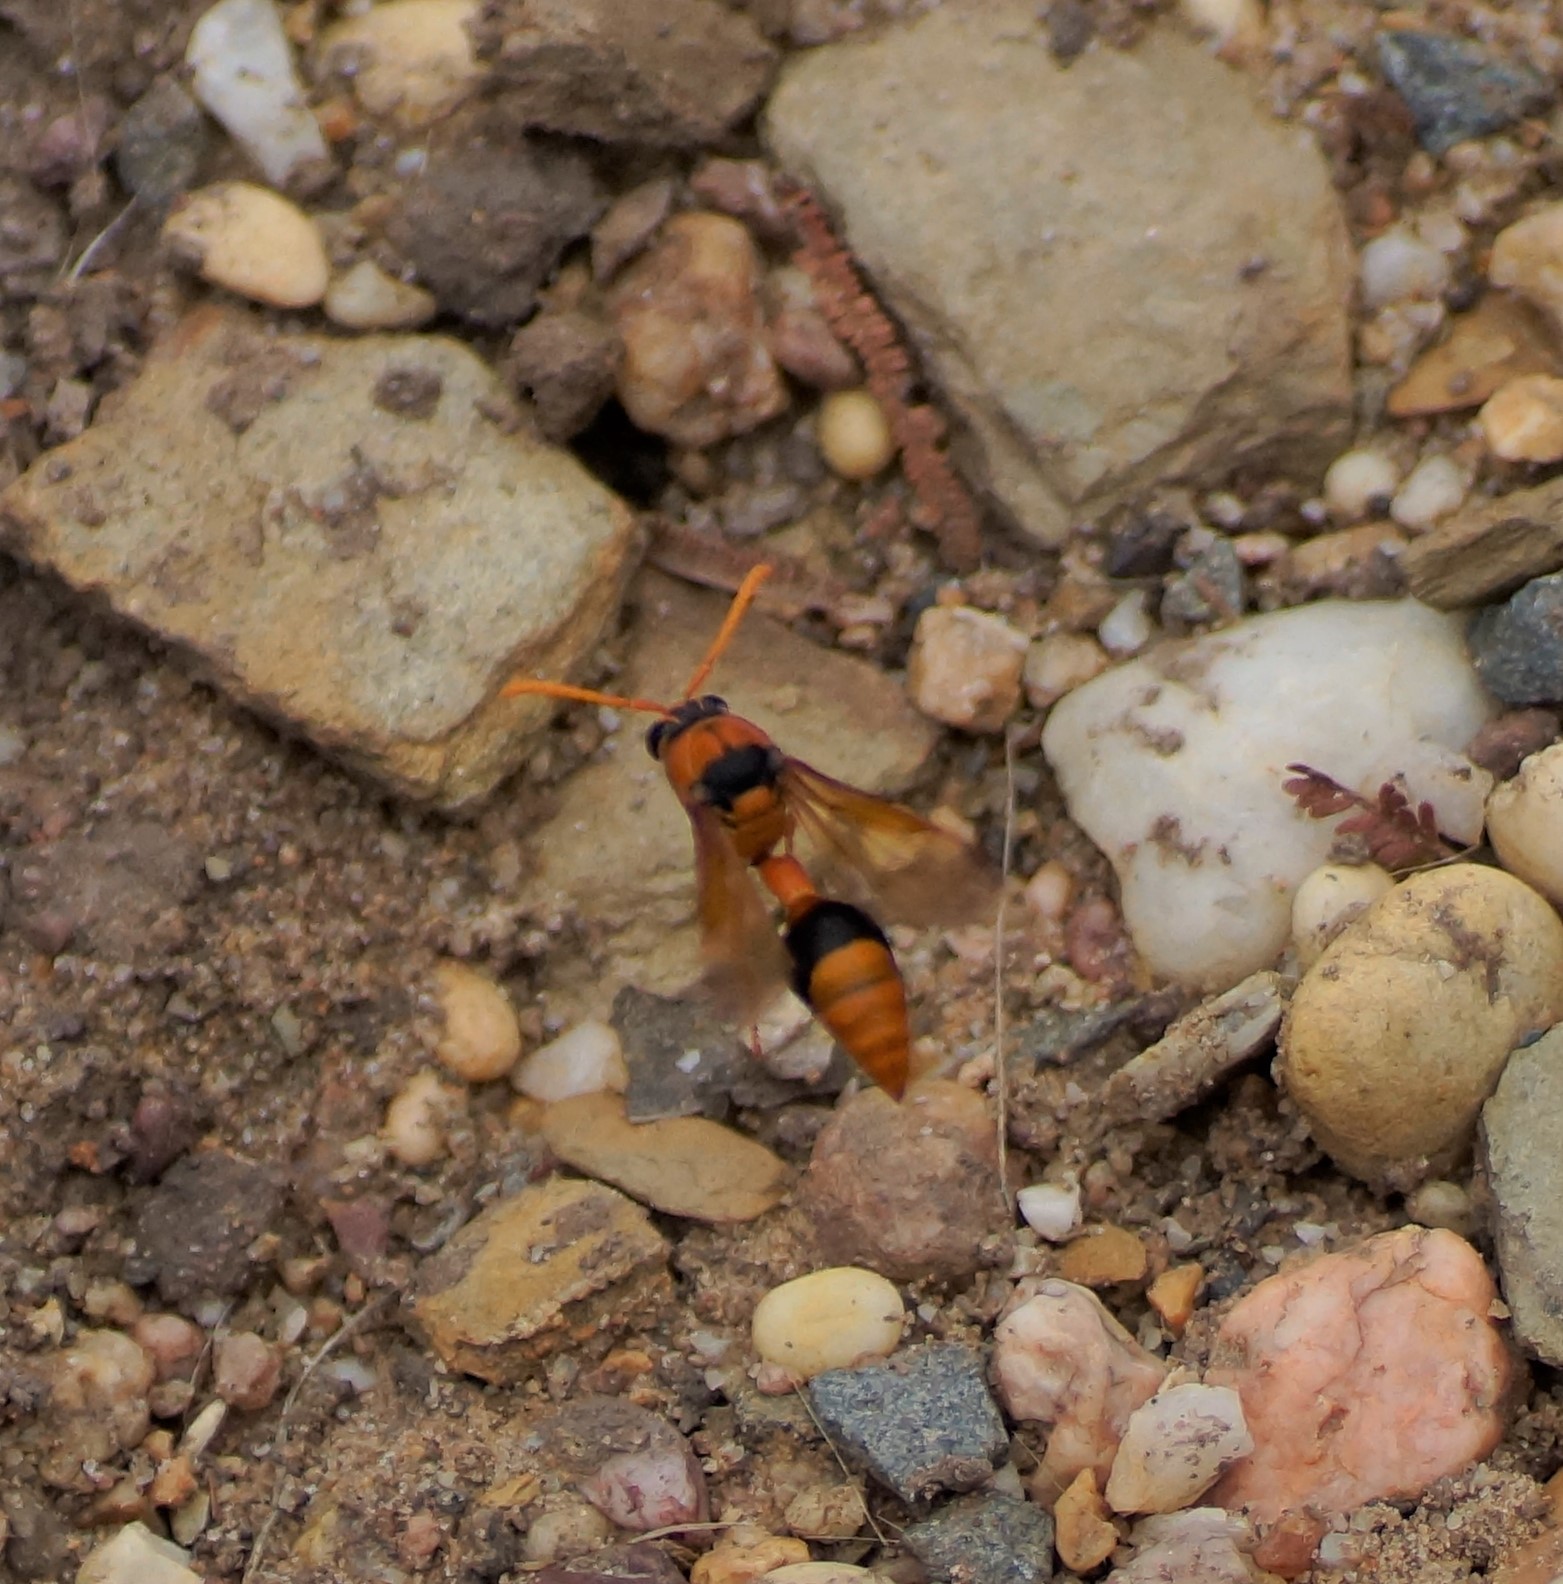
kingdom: Animalia
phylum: Arthropoda
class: Insecta
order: Hymenoptera
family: Eumenidae
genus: Delta
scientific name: Delta bicinctum
